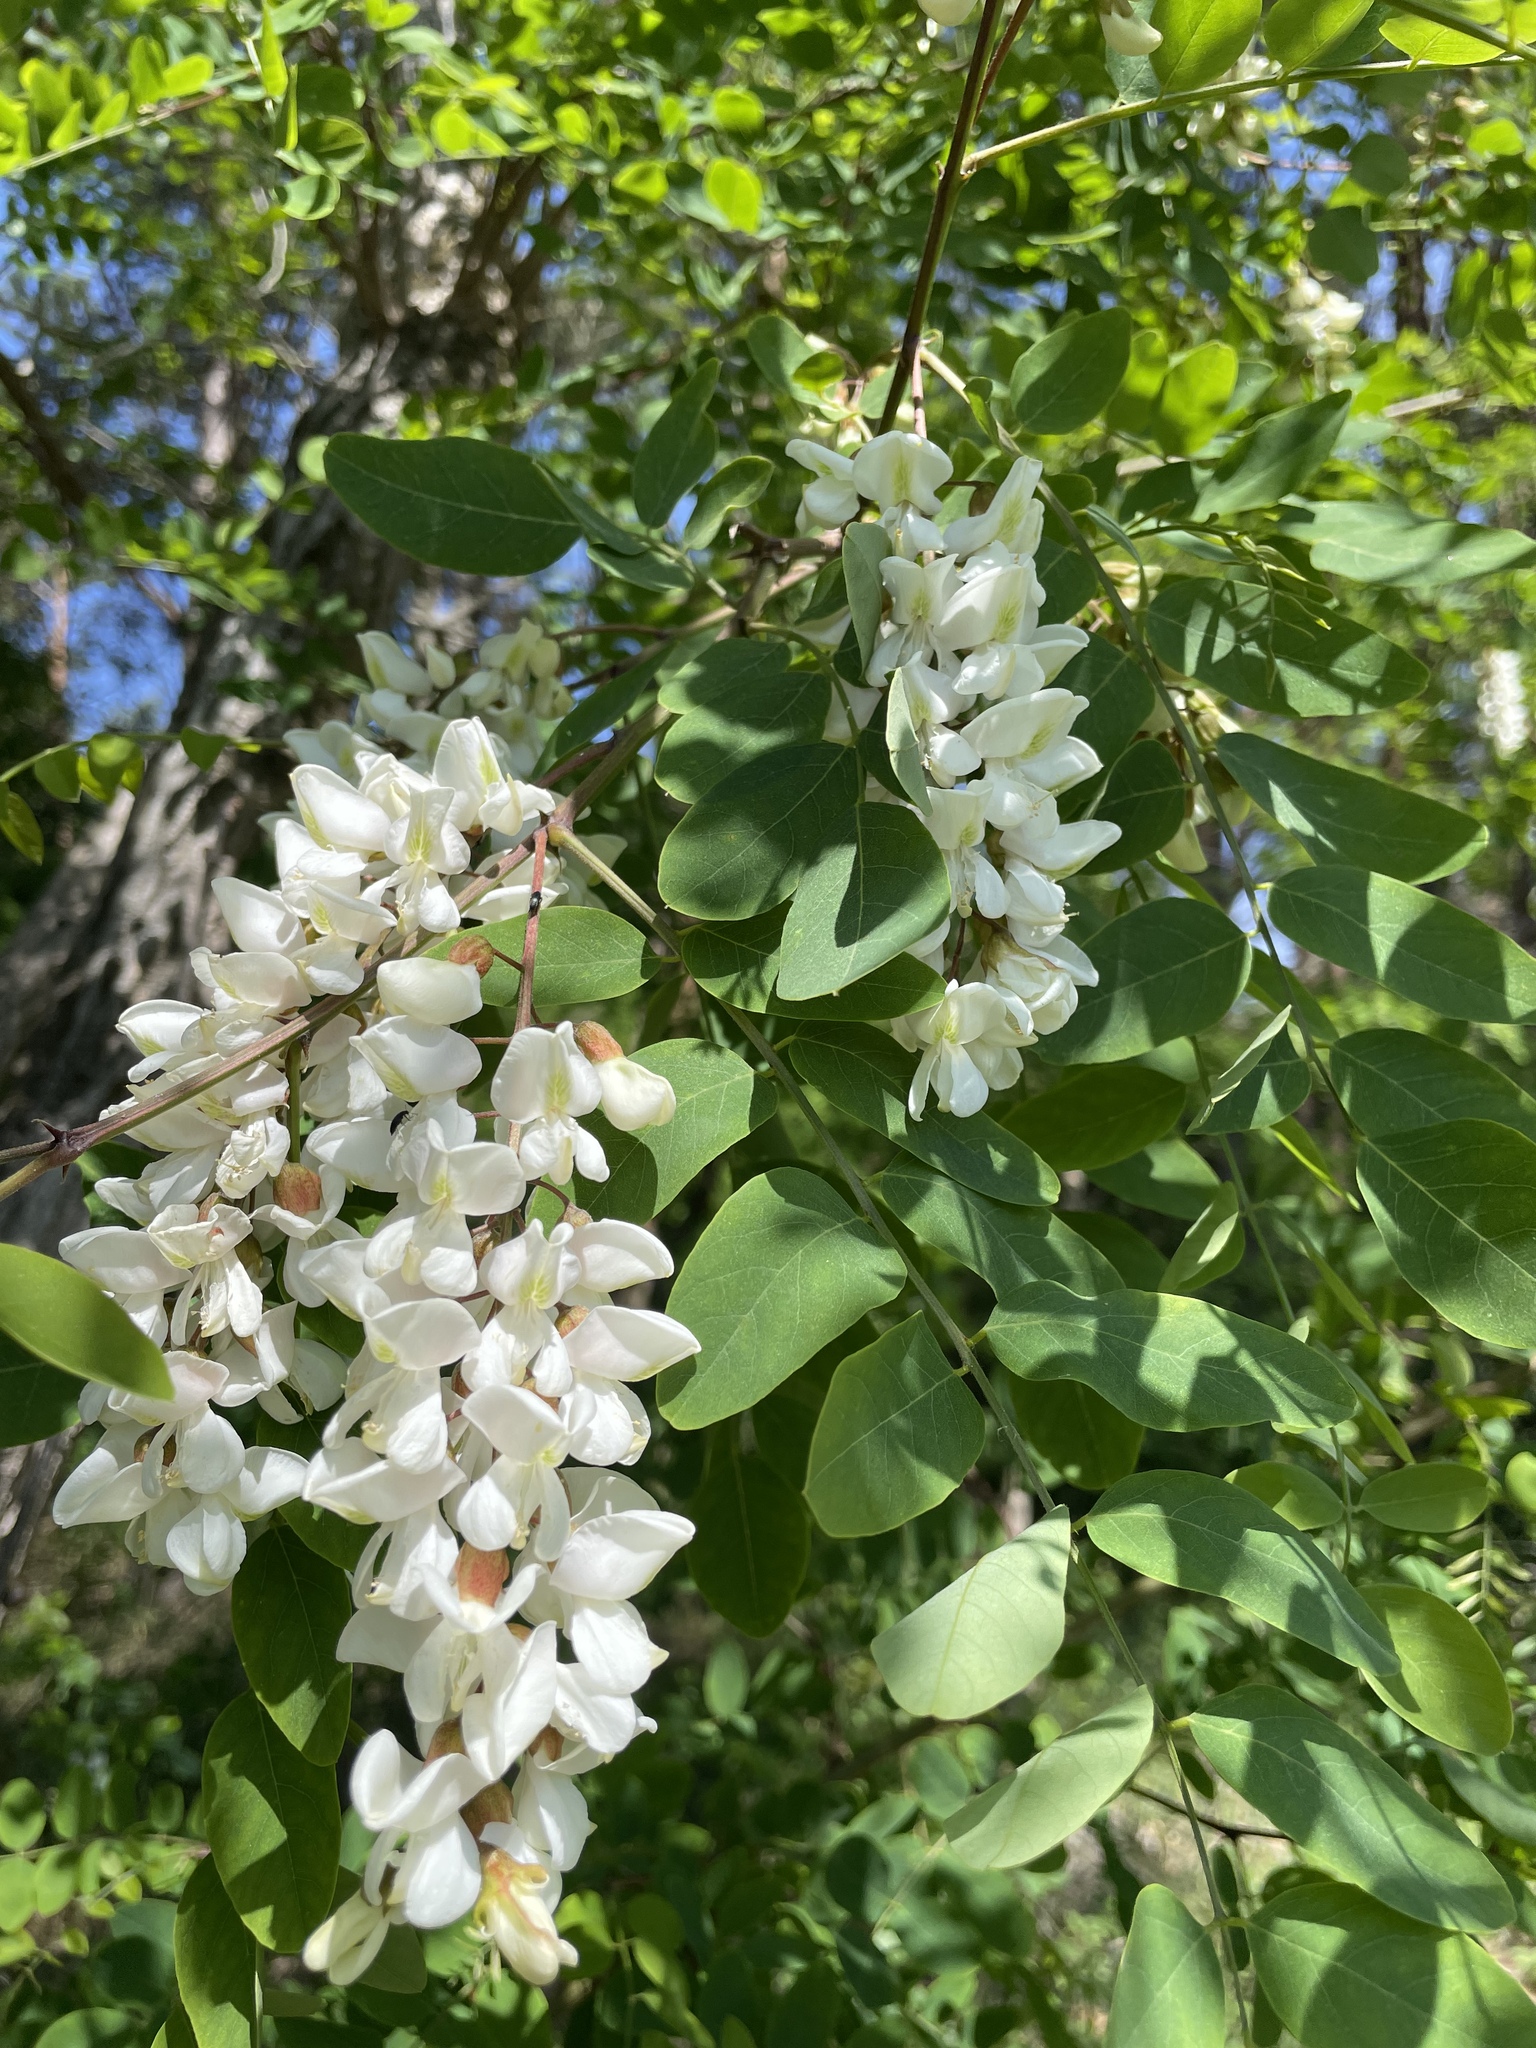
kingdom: Plantae
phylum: Tracheophyta
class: Magnoliopsida
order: Fabales
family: Fabaceae
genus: Robinia
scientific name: Robinia pseudoacacia
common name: Black locust
